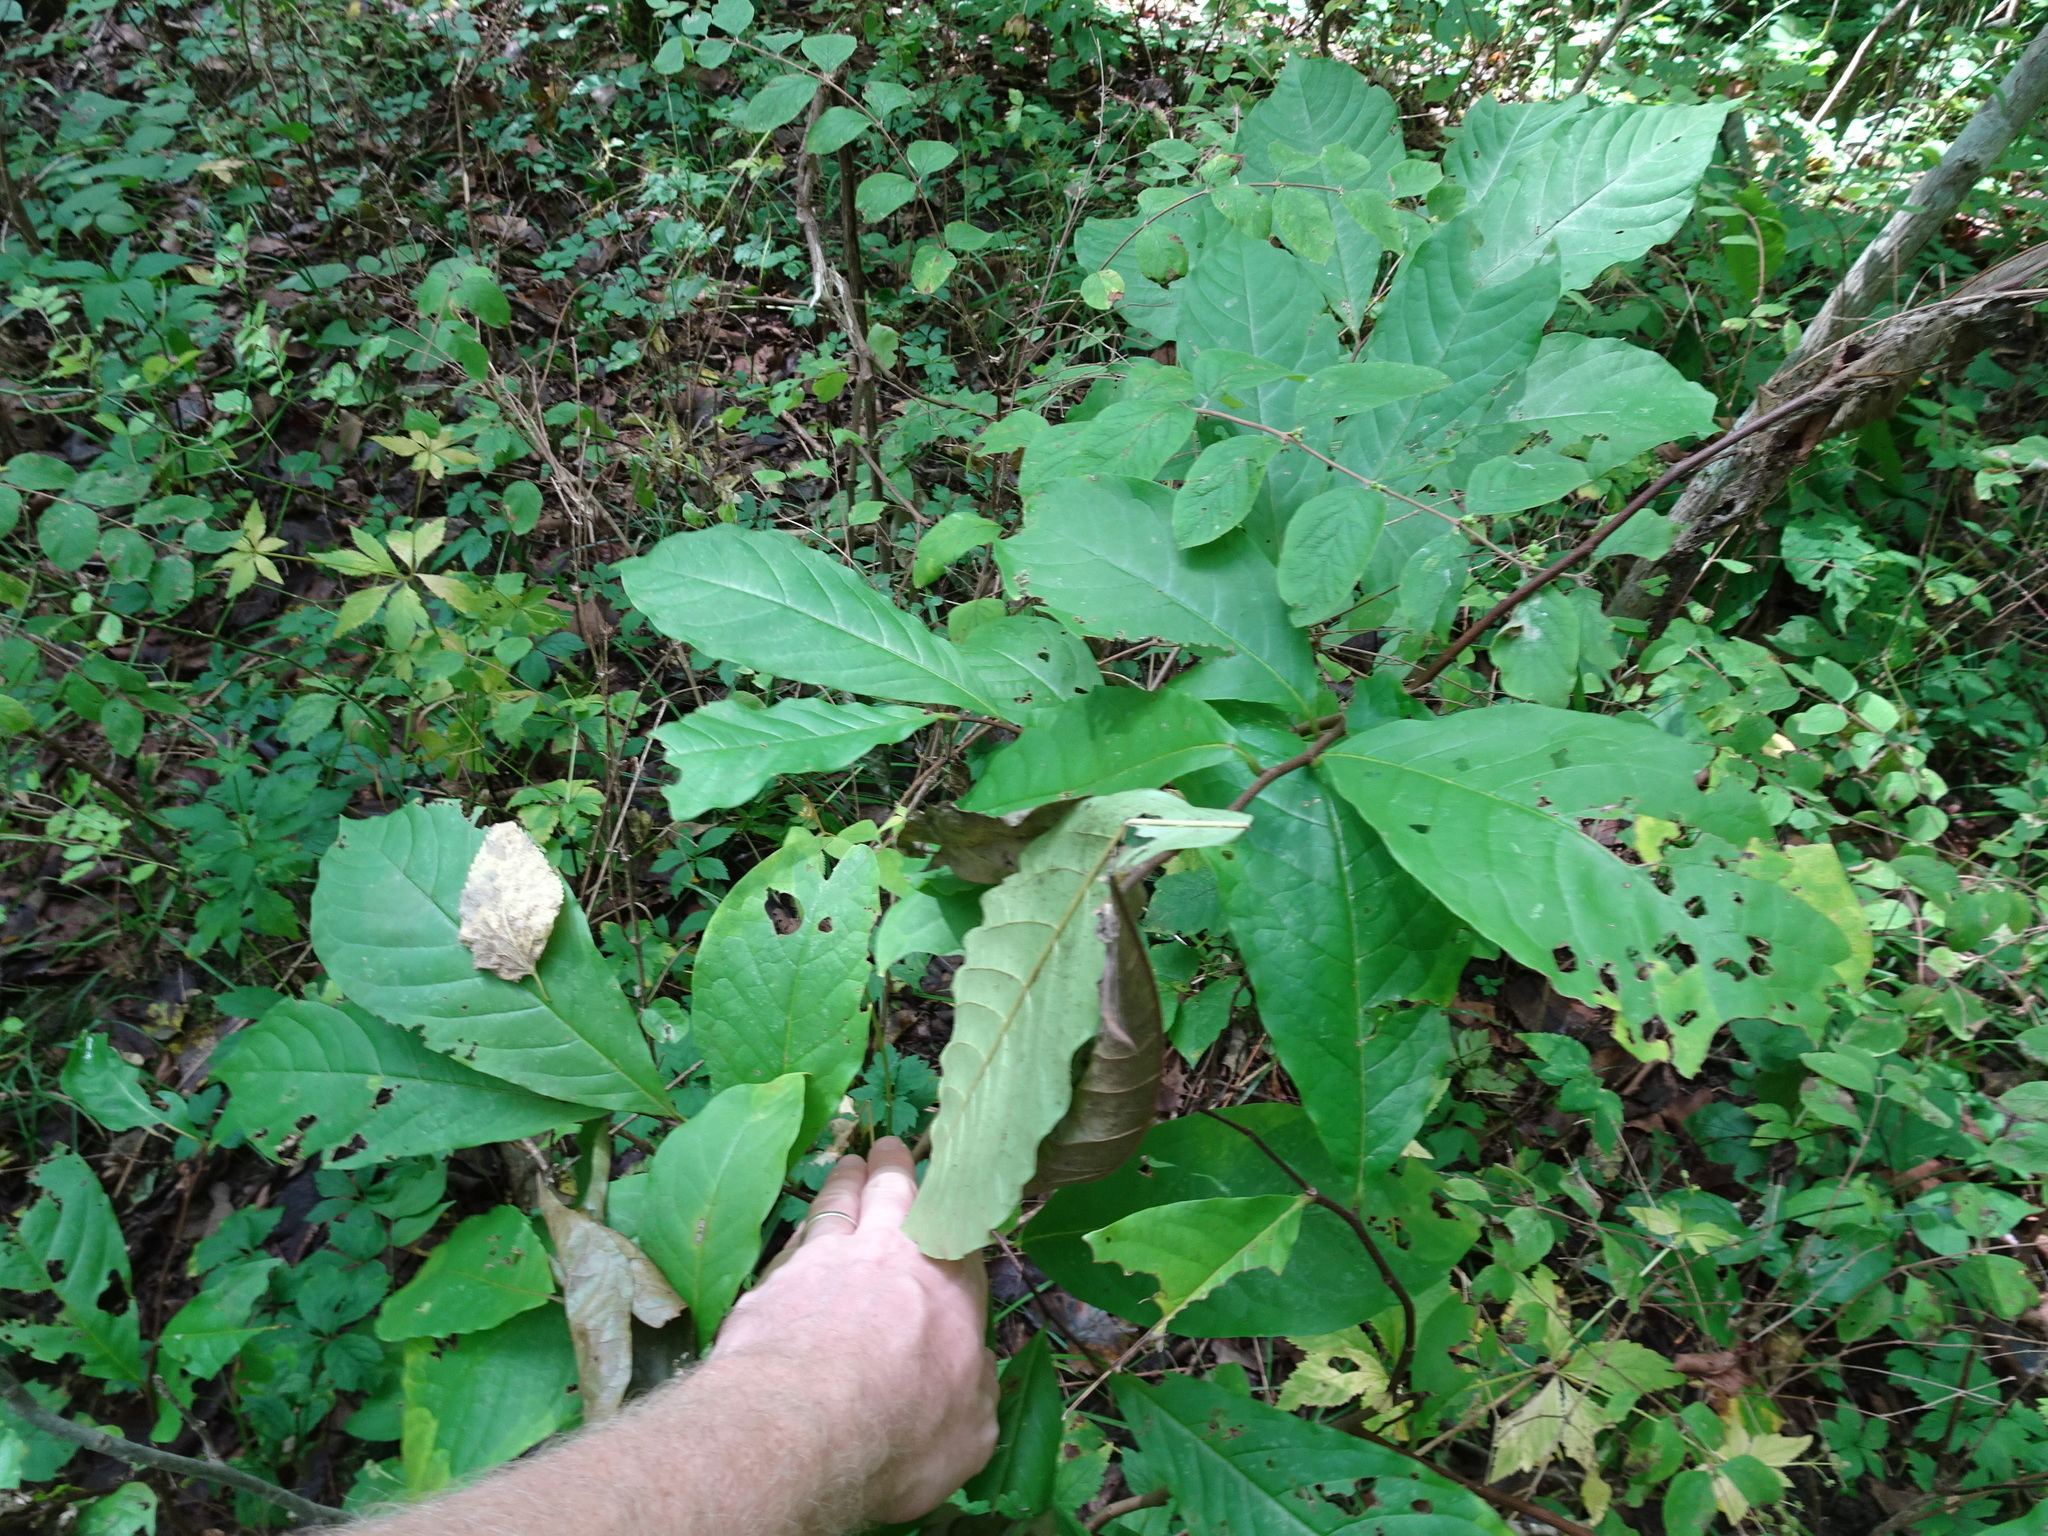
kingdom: Plantae
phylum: Tracheophyta
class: Magnoliopsida
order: Magnoliales
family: Annonaceae
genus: Asimina
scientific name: Asimina triloba
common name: Dog-banana
